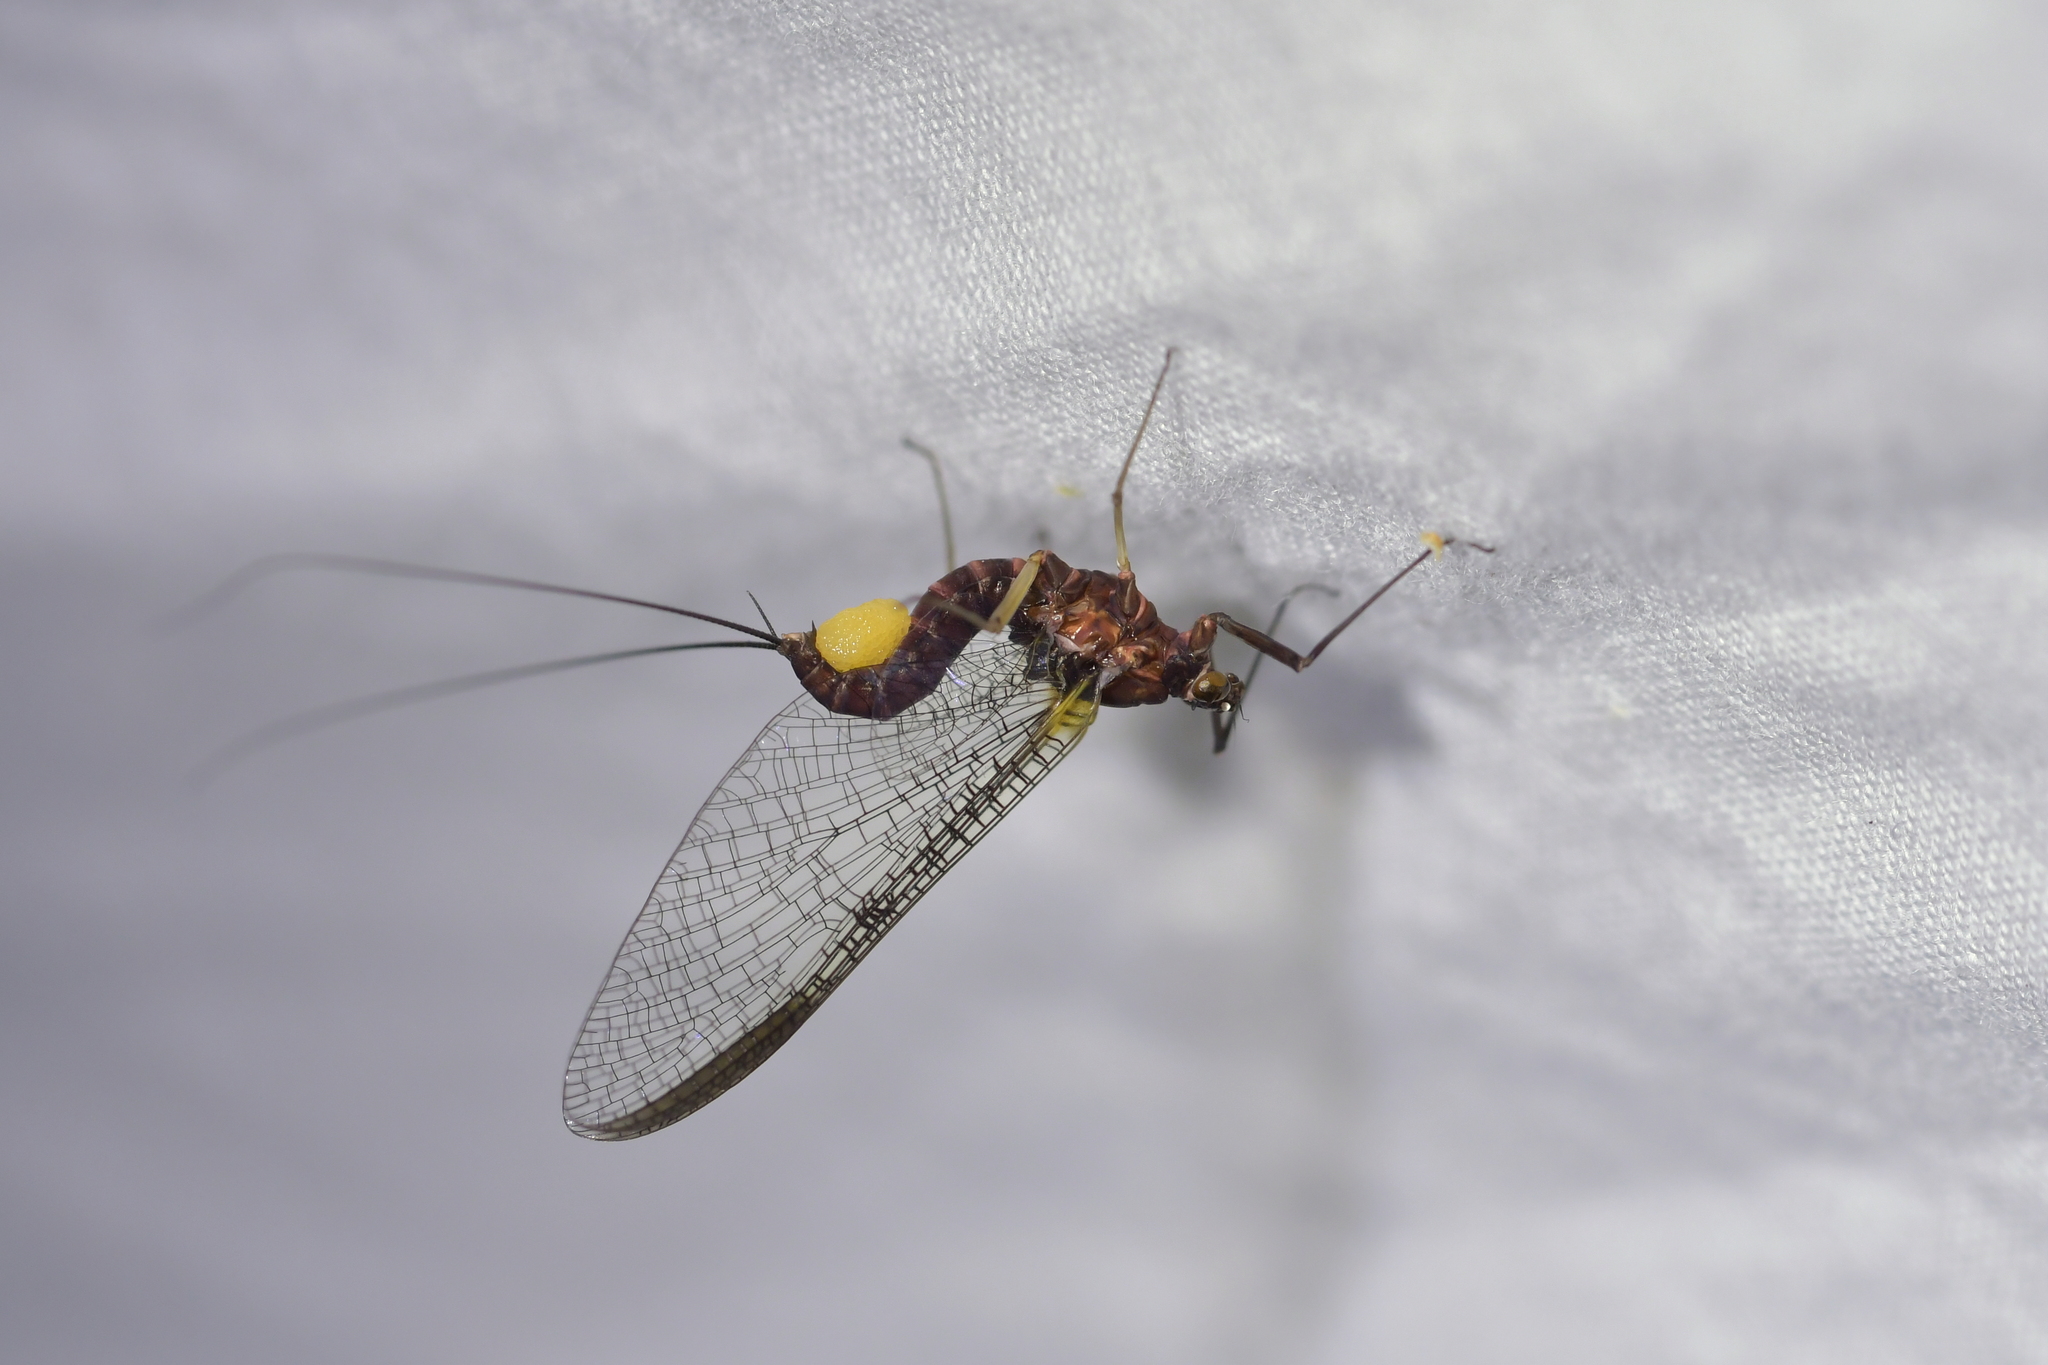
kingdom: Animalia
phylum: Arthropoda
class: Insecta
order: Ephemeroptera
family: Coloburiscidae
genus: Coloburiscus
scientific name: Coloburiscus humeralis
